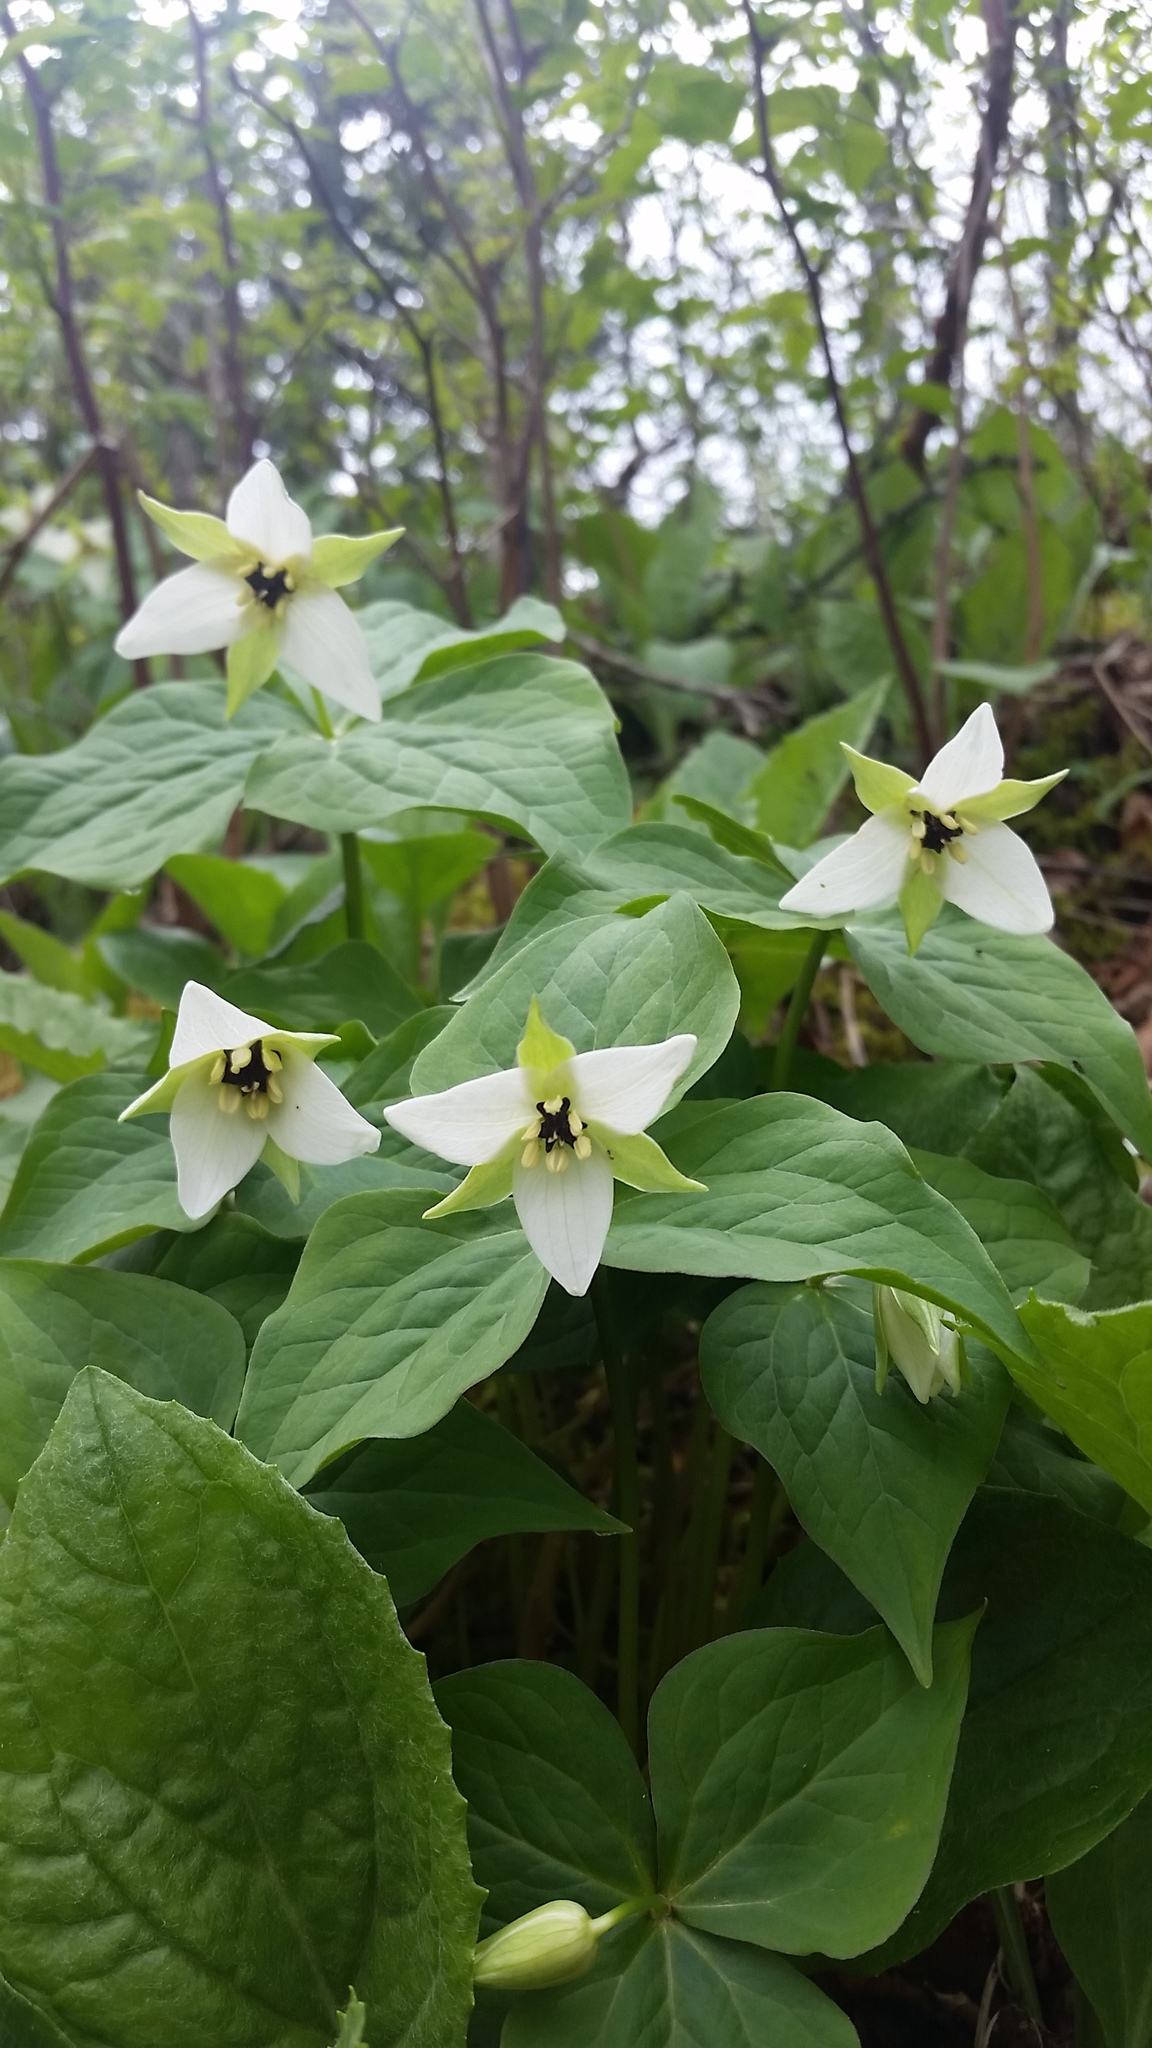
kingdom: Plantae
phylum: Tracheophyta
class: Liliopsida
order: Liliales
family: Melanthiaceae
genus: Trillium
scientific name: Trillium erectum
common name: Purple trillium
